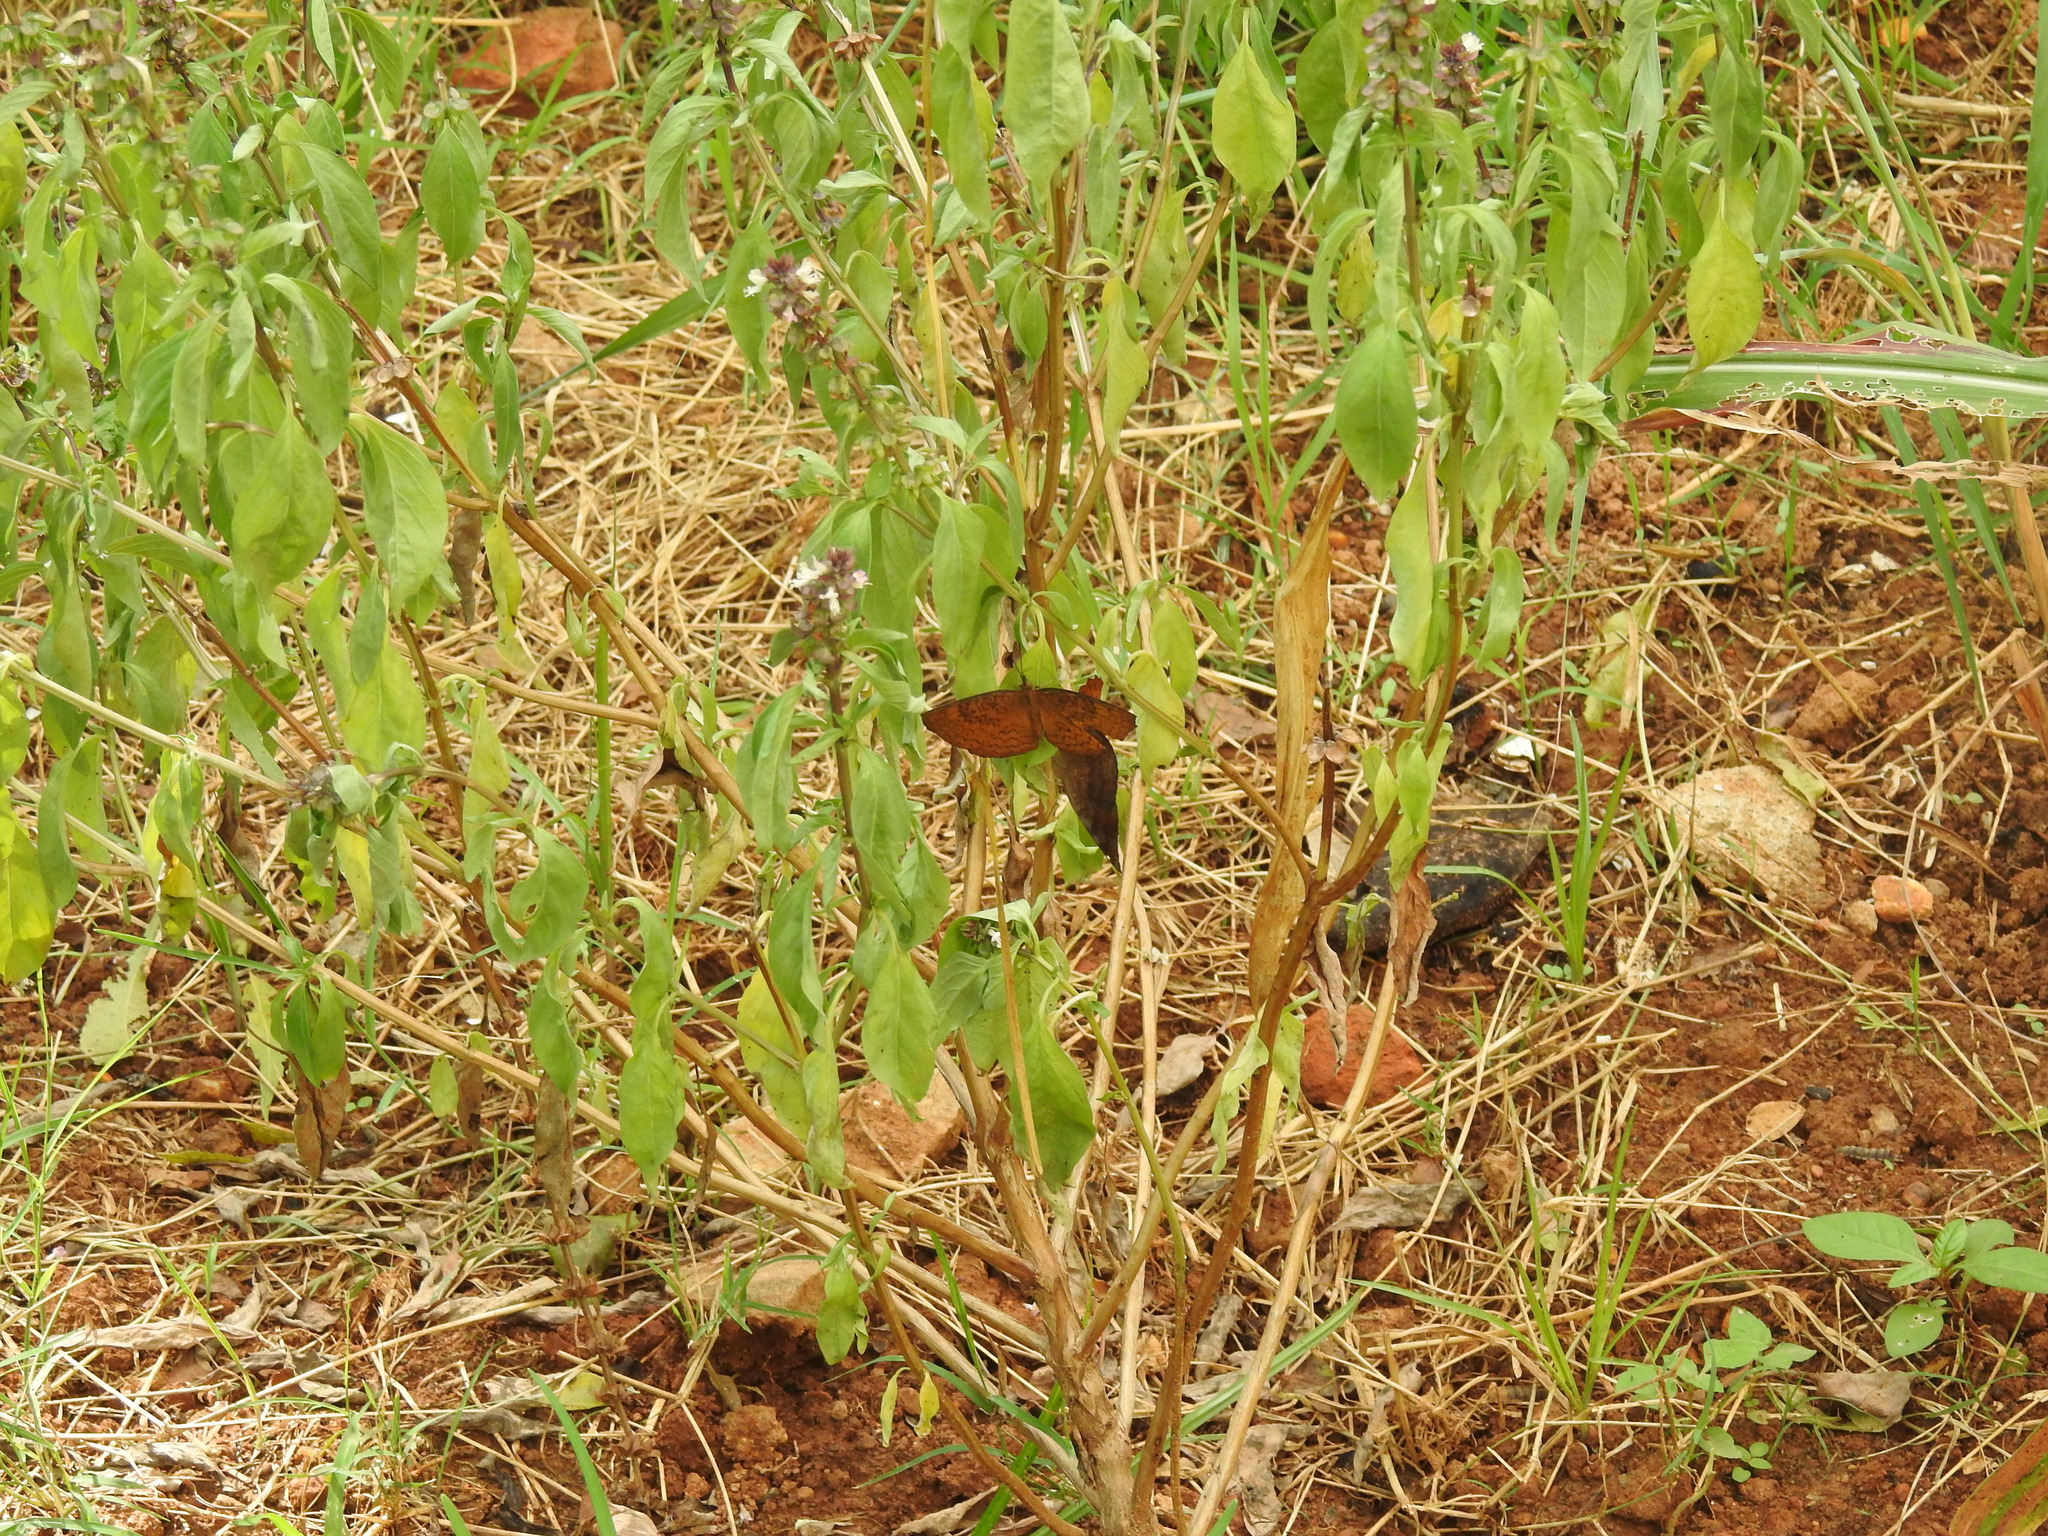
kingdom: Animalia
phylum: Arthropoda
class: Insecta
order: Lepidoptera
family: Nymphalidae
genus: Ariadne
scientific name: Ariadne merione
